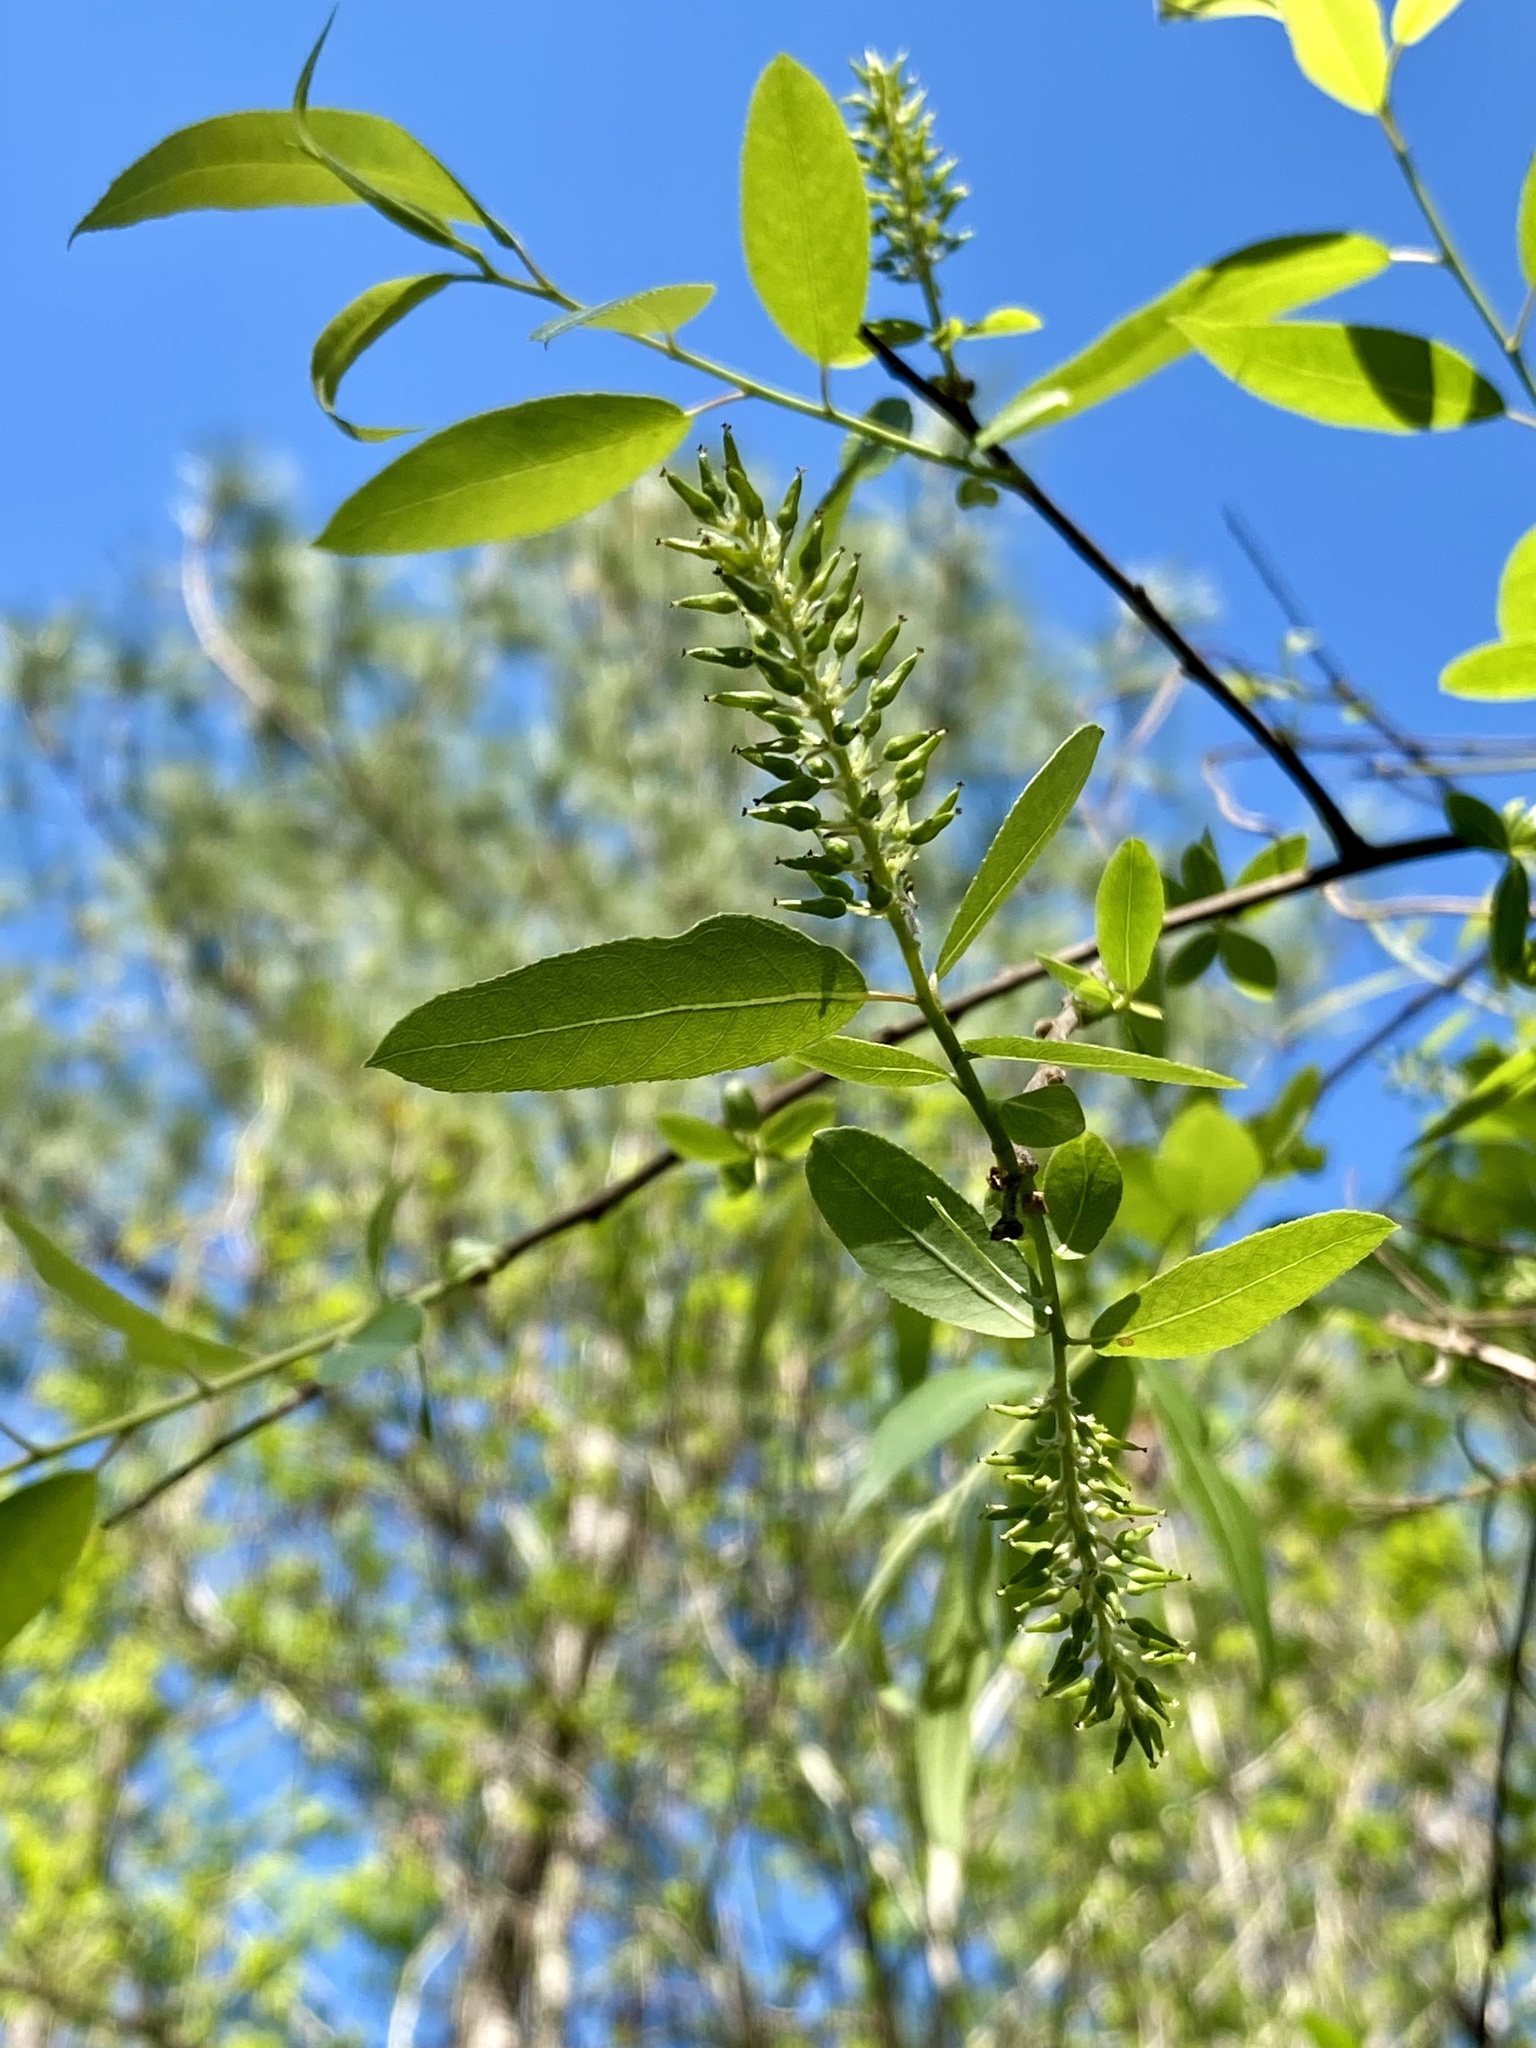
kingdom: Plantae
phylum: Tracheophyta
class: Magnoliopsida
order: Malpighiales
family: Salicaceae
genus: Salix
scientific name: Salix caroliniana
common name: Carolina willow
